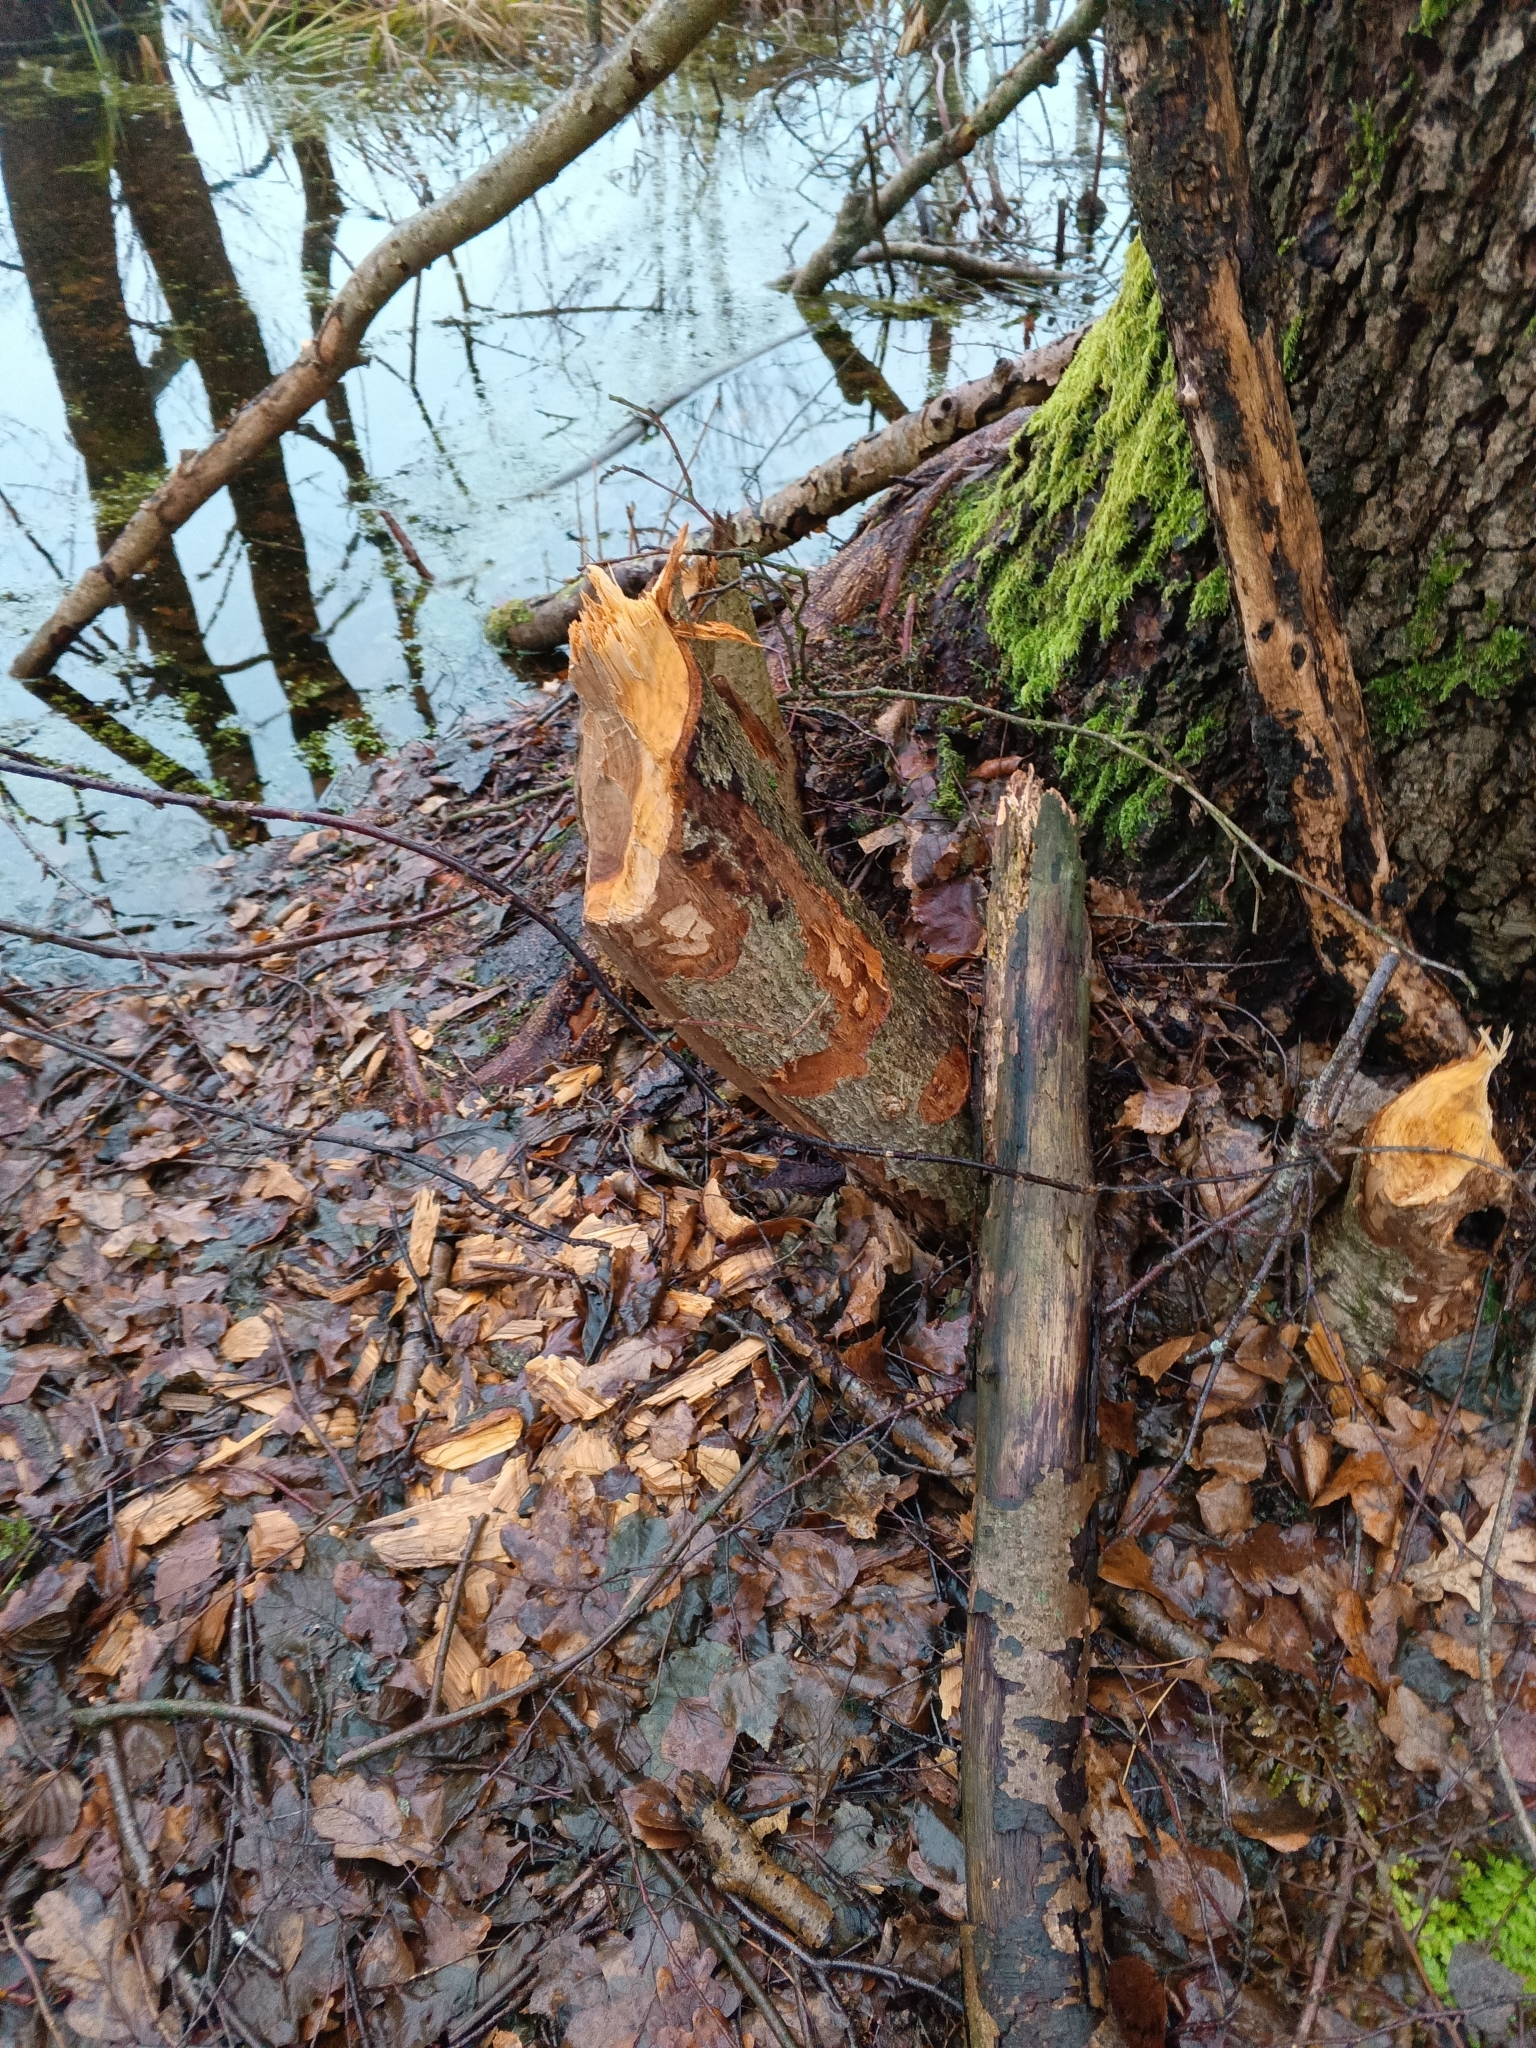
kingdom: Animalia
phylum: Chordata
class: Mammalia
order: Rodentia
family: Castoridae
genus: Castor
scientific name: Castor fiber
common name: Eurasian beaver
